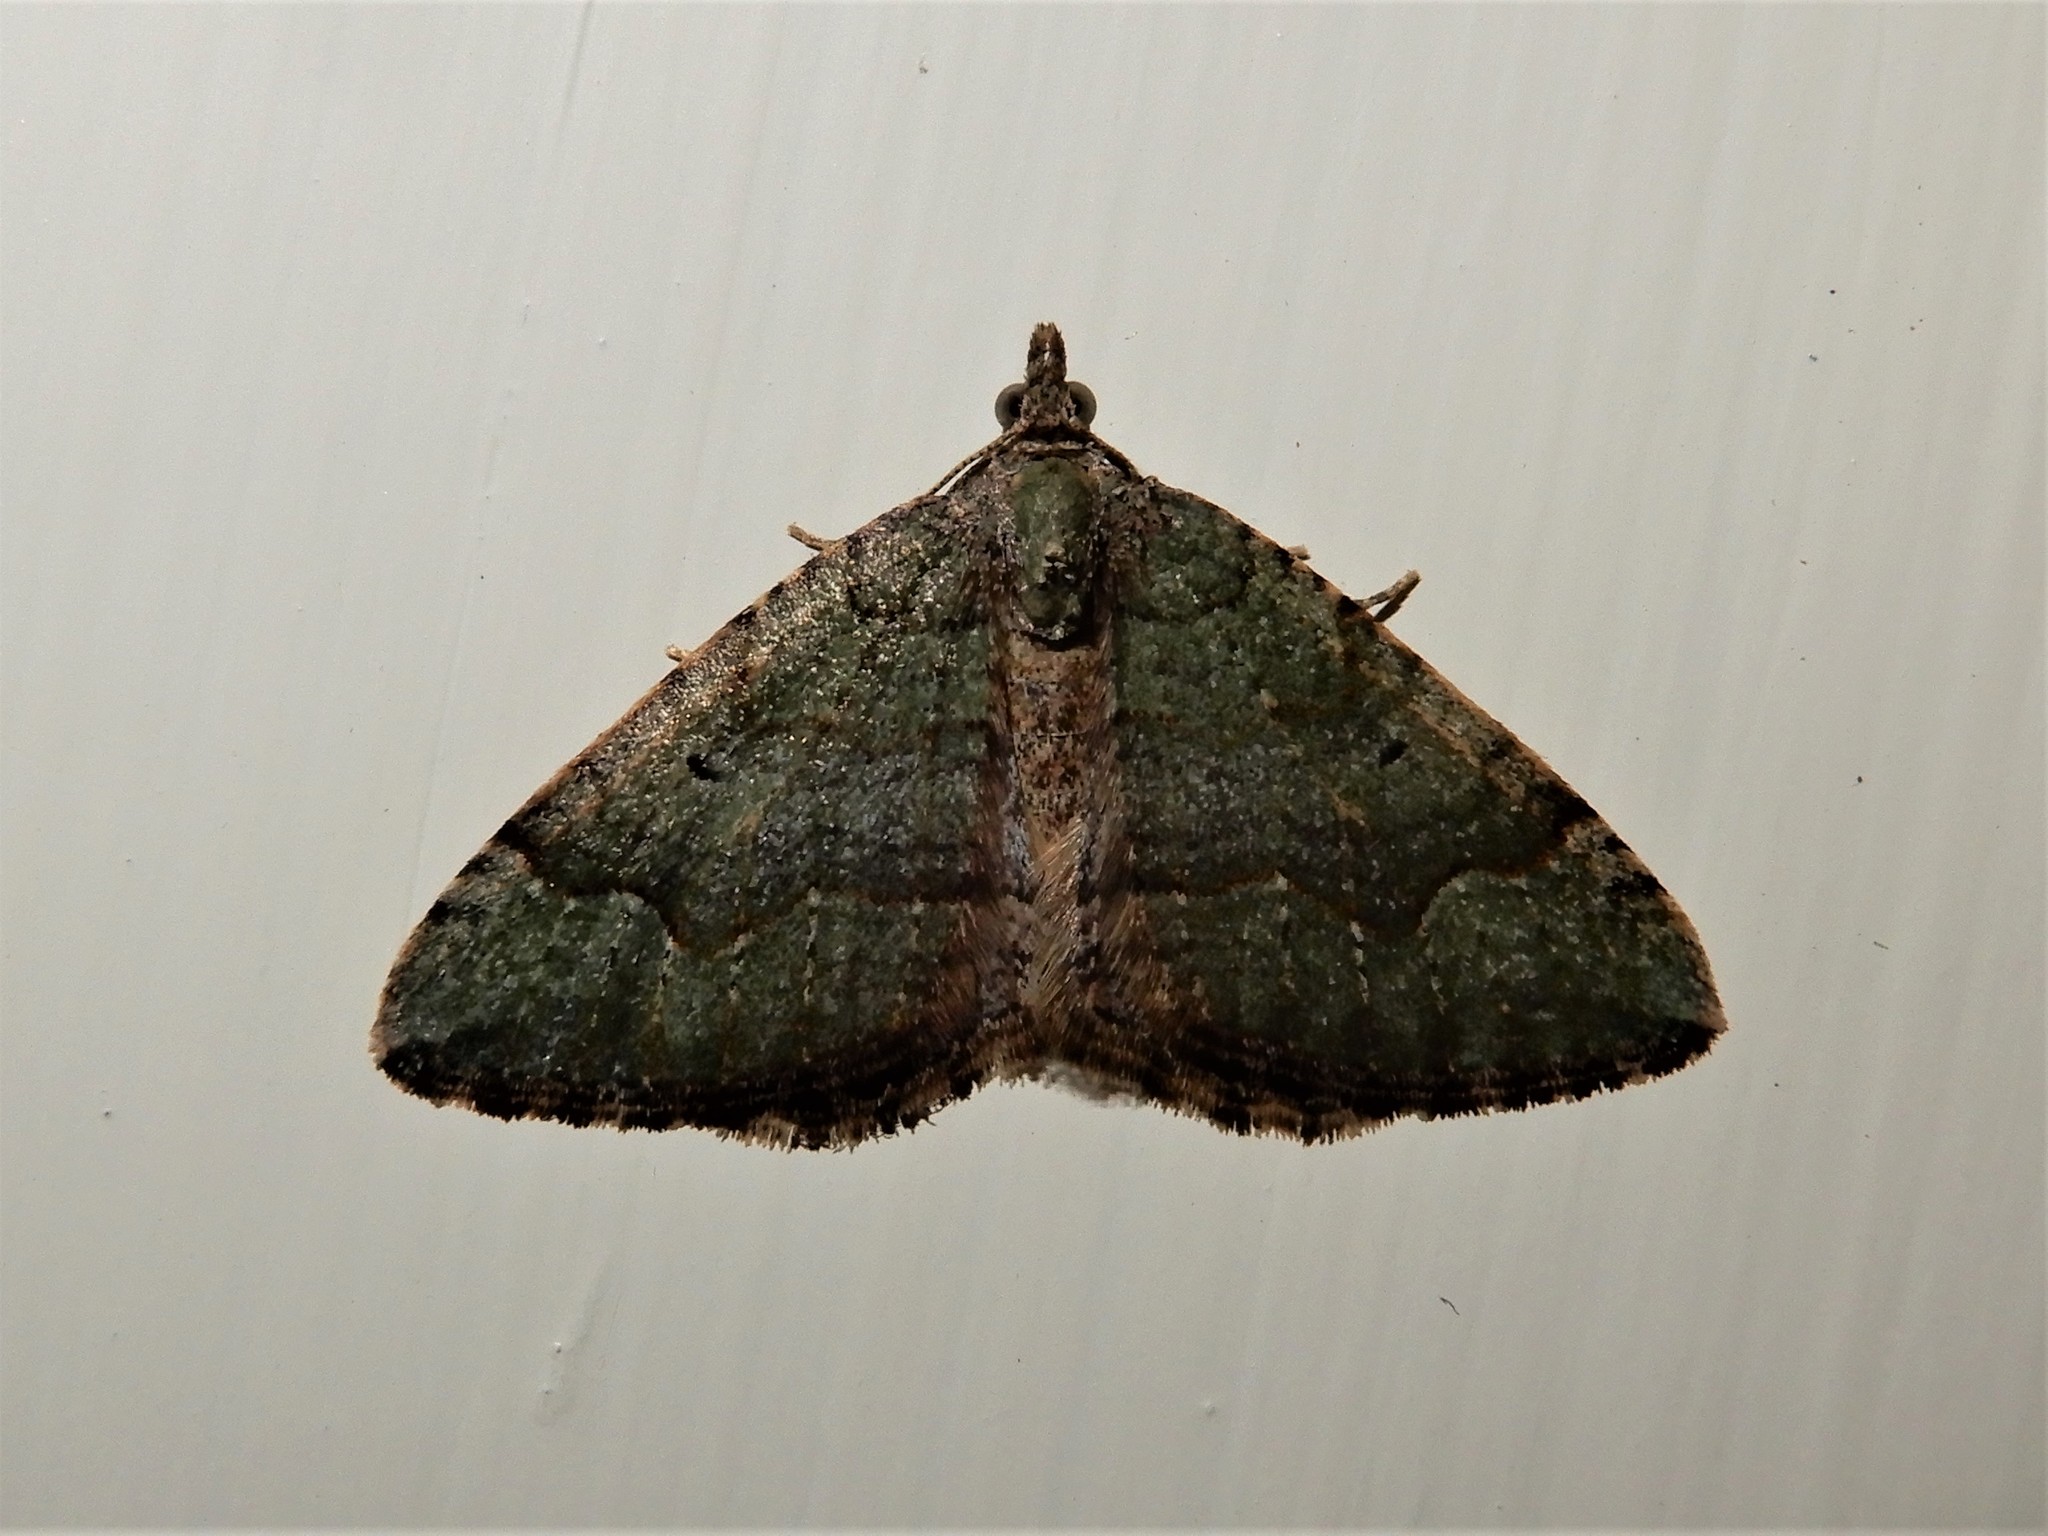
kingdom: Animalia
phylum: Arthropoda
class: Insecta
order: Lepidoptera
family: Geometridae
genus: Epyaxa
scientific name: Epyaxa rosearia
